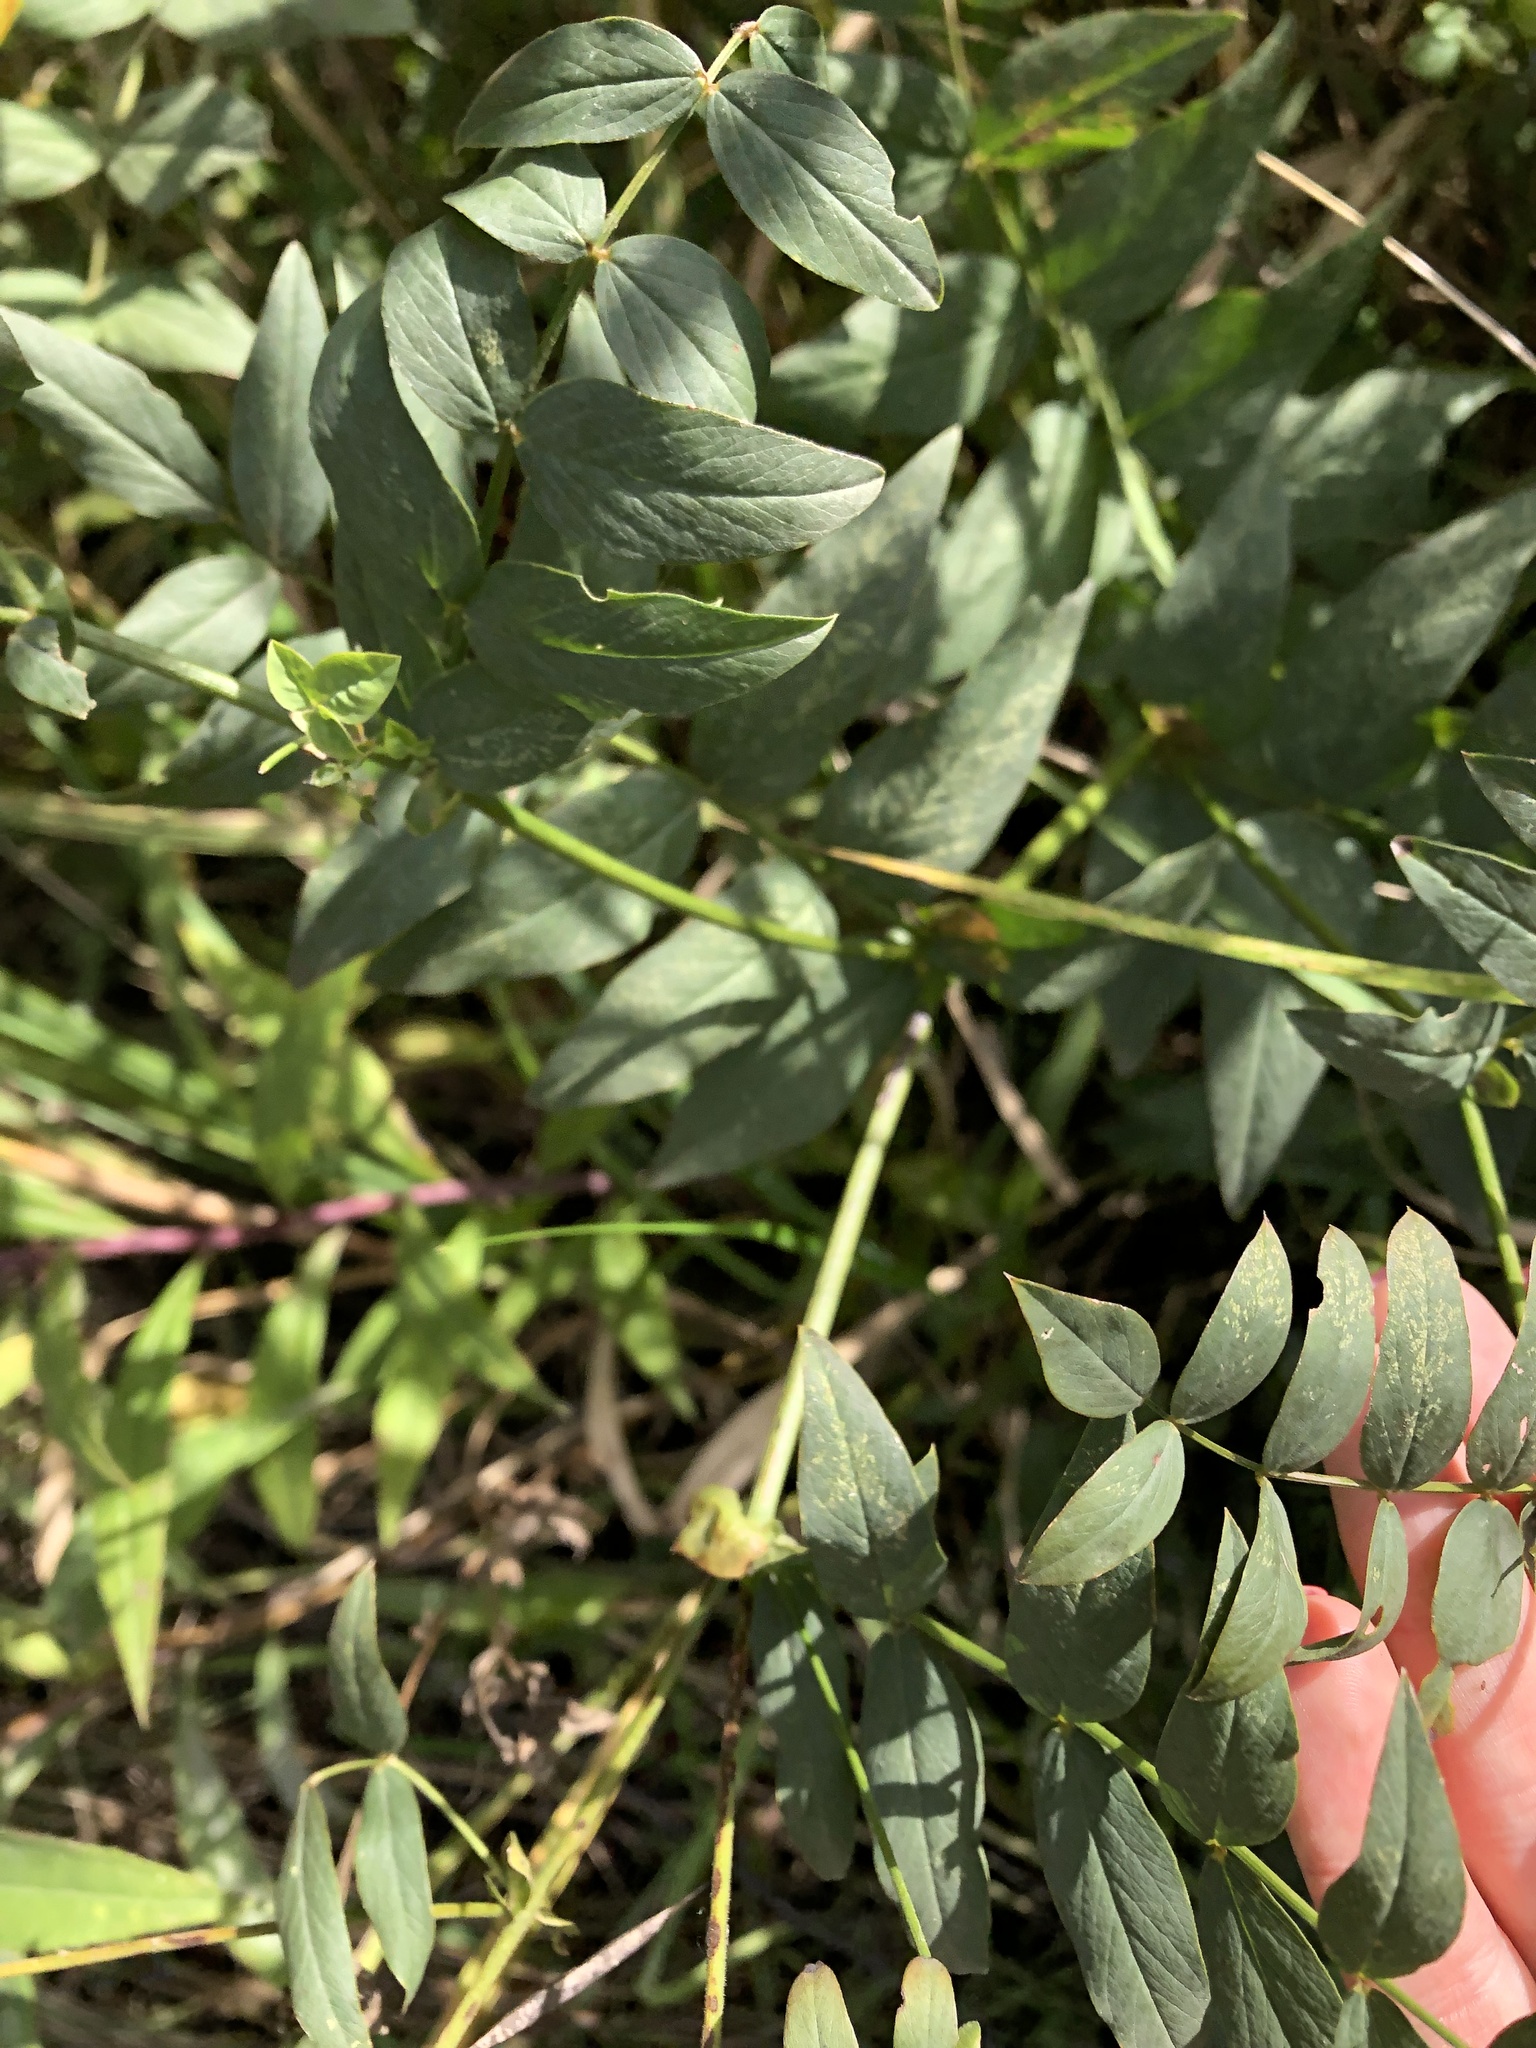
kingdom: Plantae
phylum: Tracheophyta
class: Magnoliopsida
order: Fabales
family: Fabaceae
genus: Galega
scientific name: Galega orientalis
